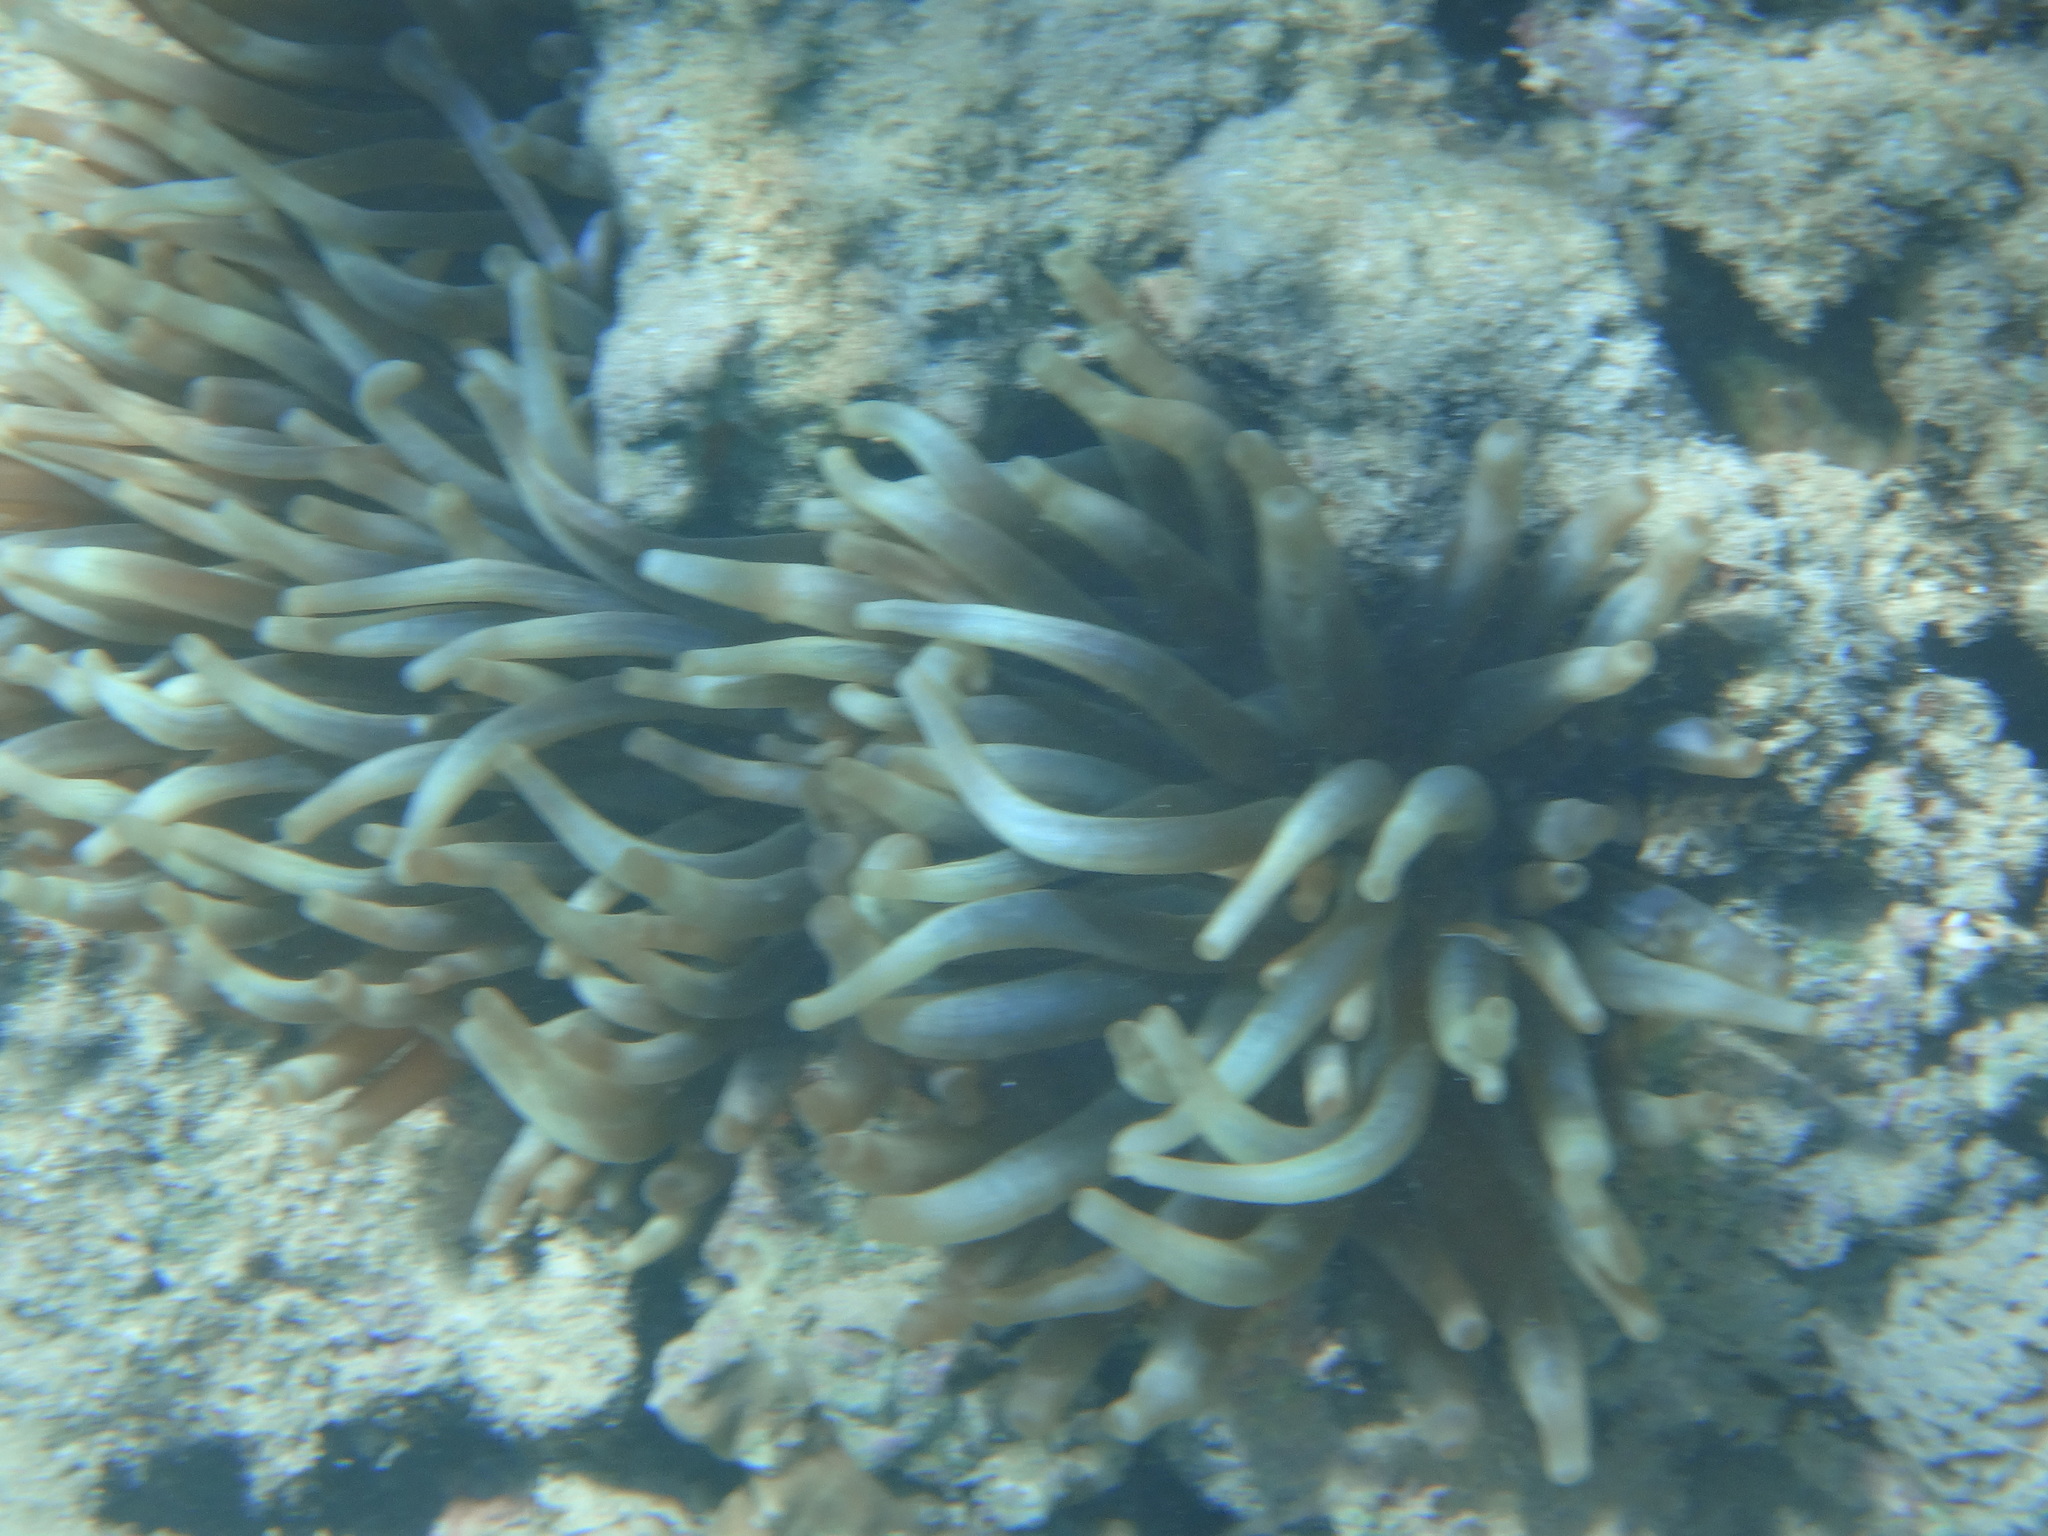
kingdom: Animalia
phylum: Cnidaria
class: Anthozoa
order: Actiniaria
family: Actiniidae
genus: Entacmaea
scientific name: Entacmaea quadricolor
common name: Bulb tentacle sea anemone
